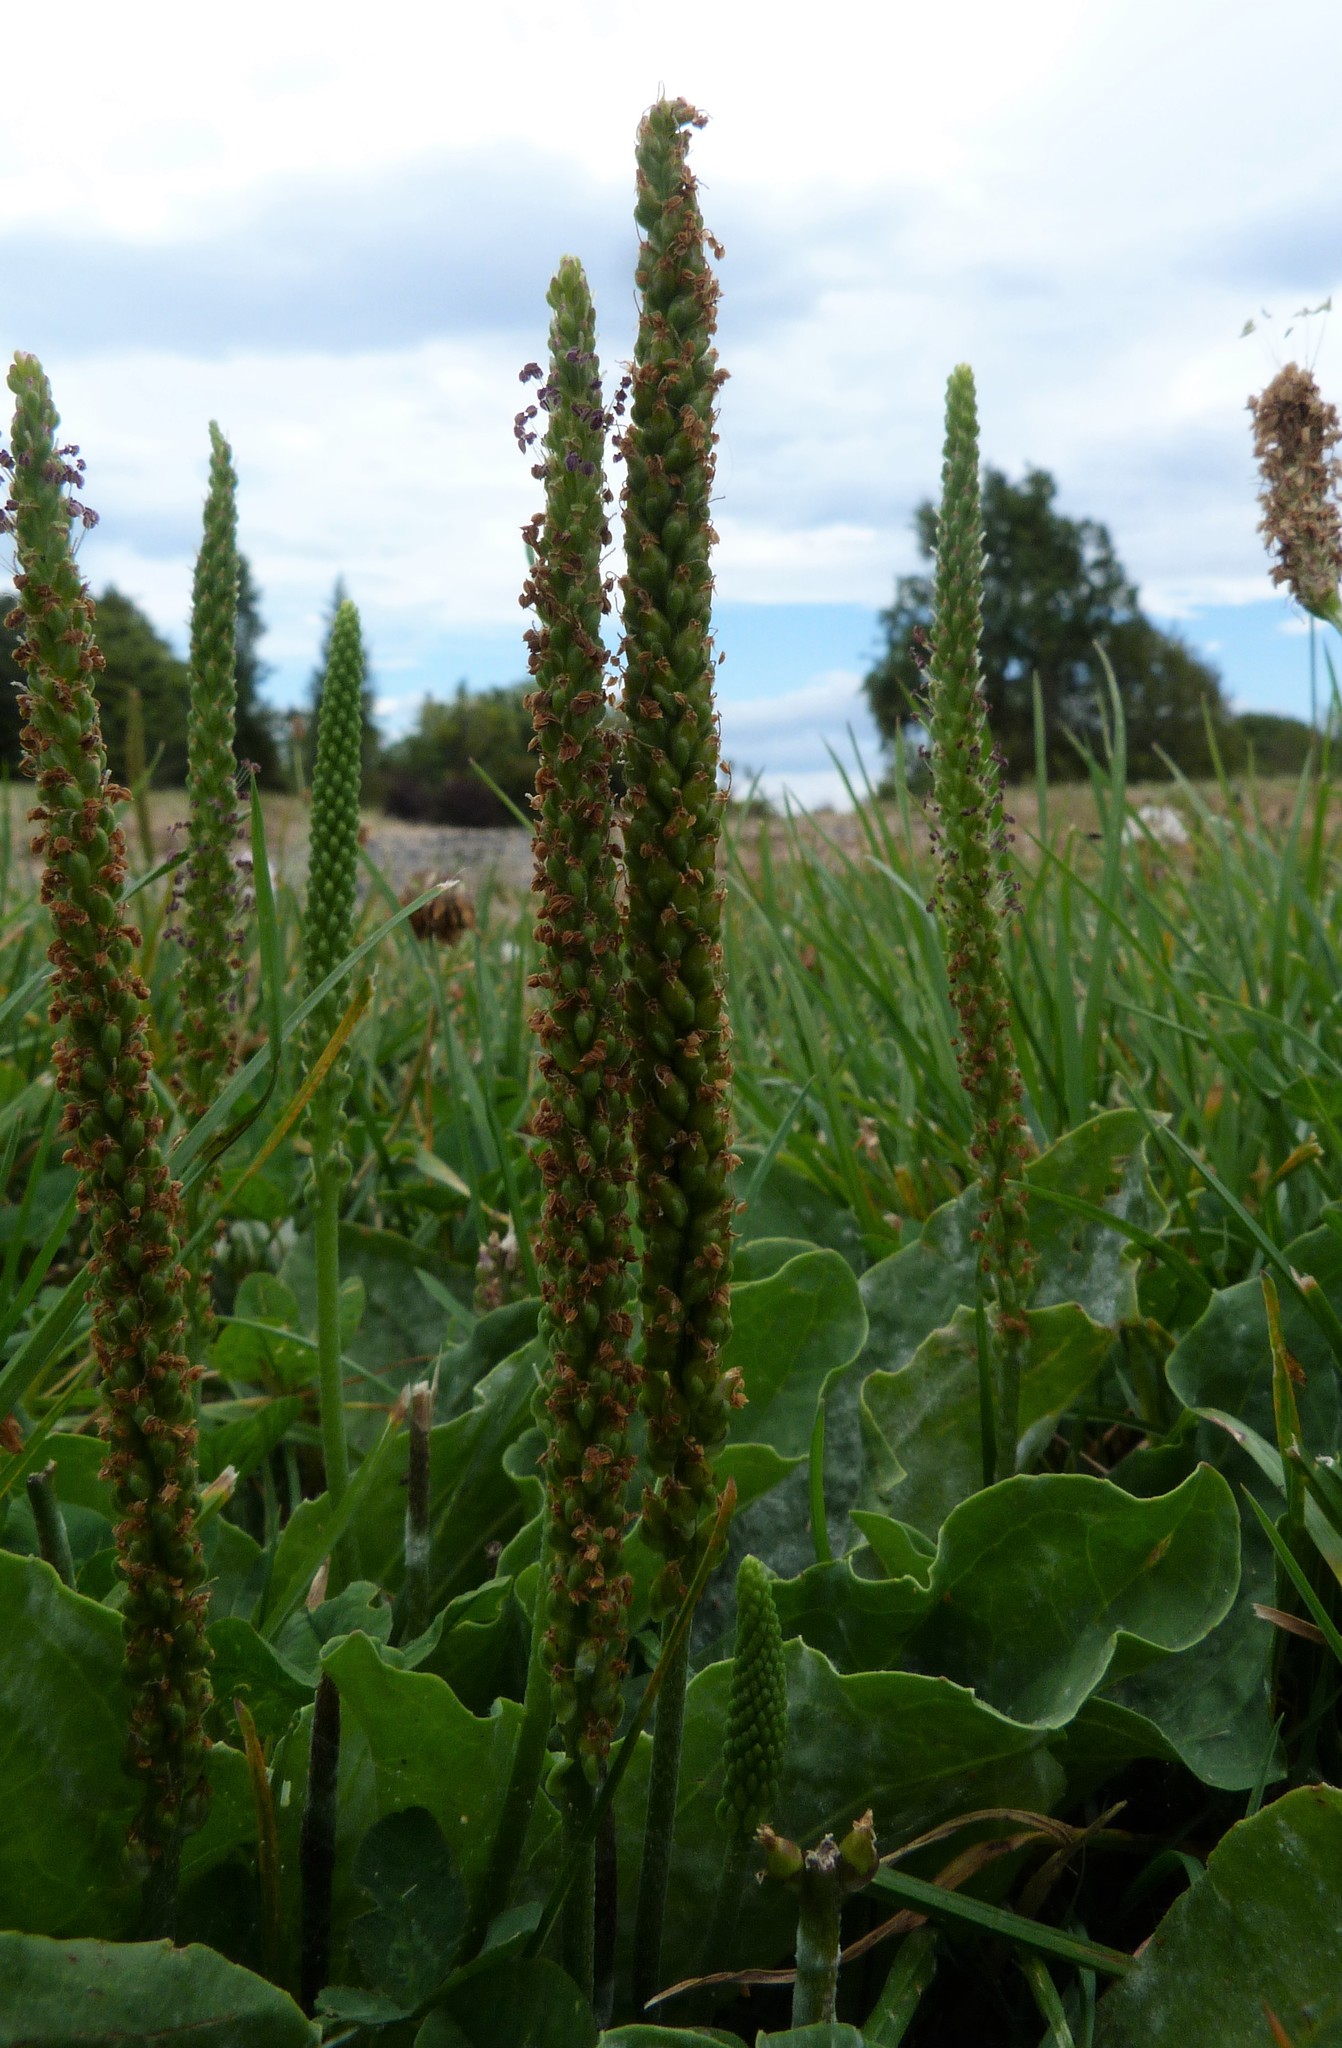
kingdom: Plantae
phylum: Tracheophyta
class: Magnoliopsida
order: Lamiales
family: Plantaginaceae
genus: Plantago
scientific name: Plantago major
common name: Common plantain
